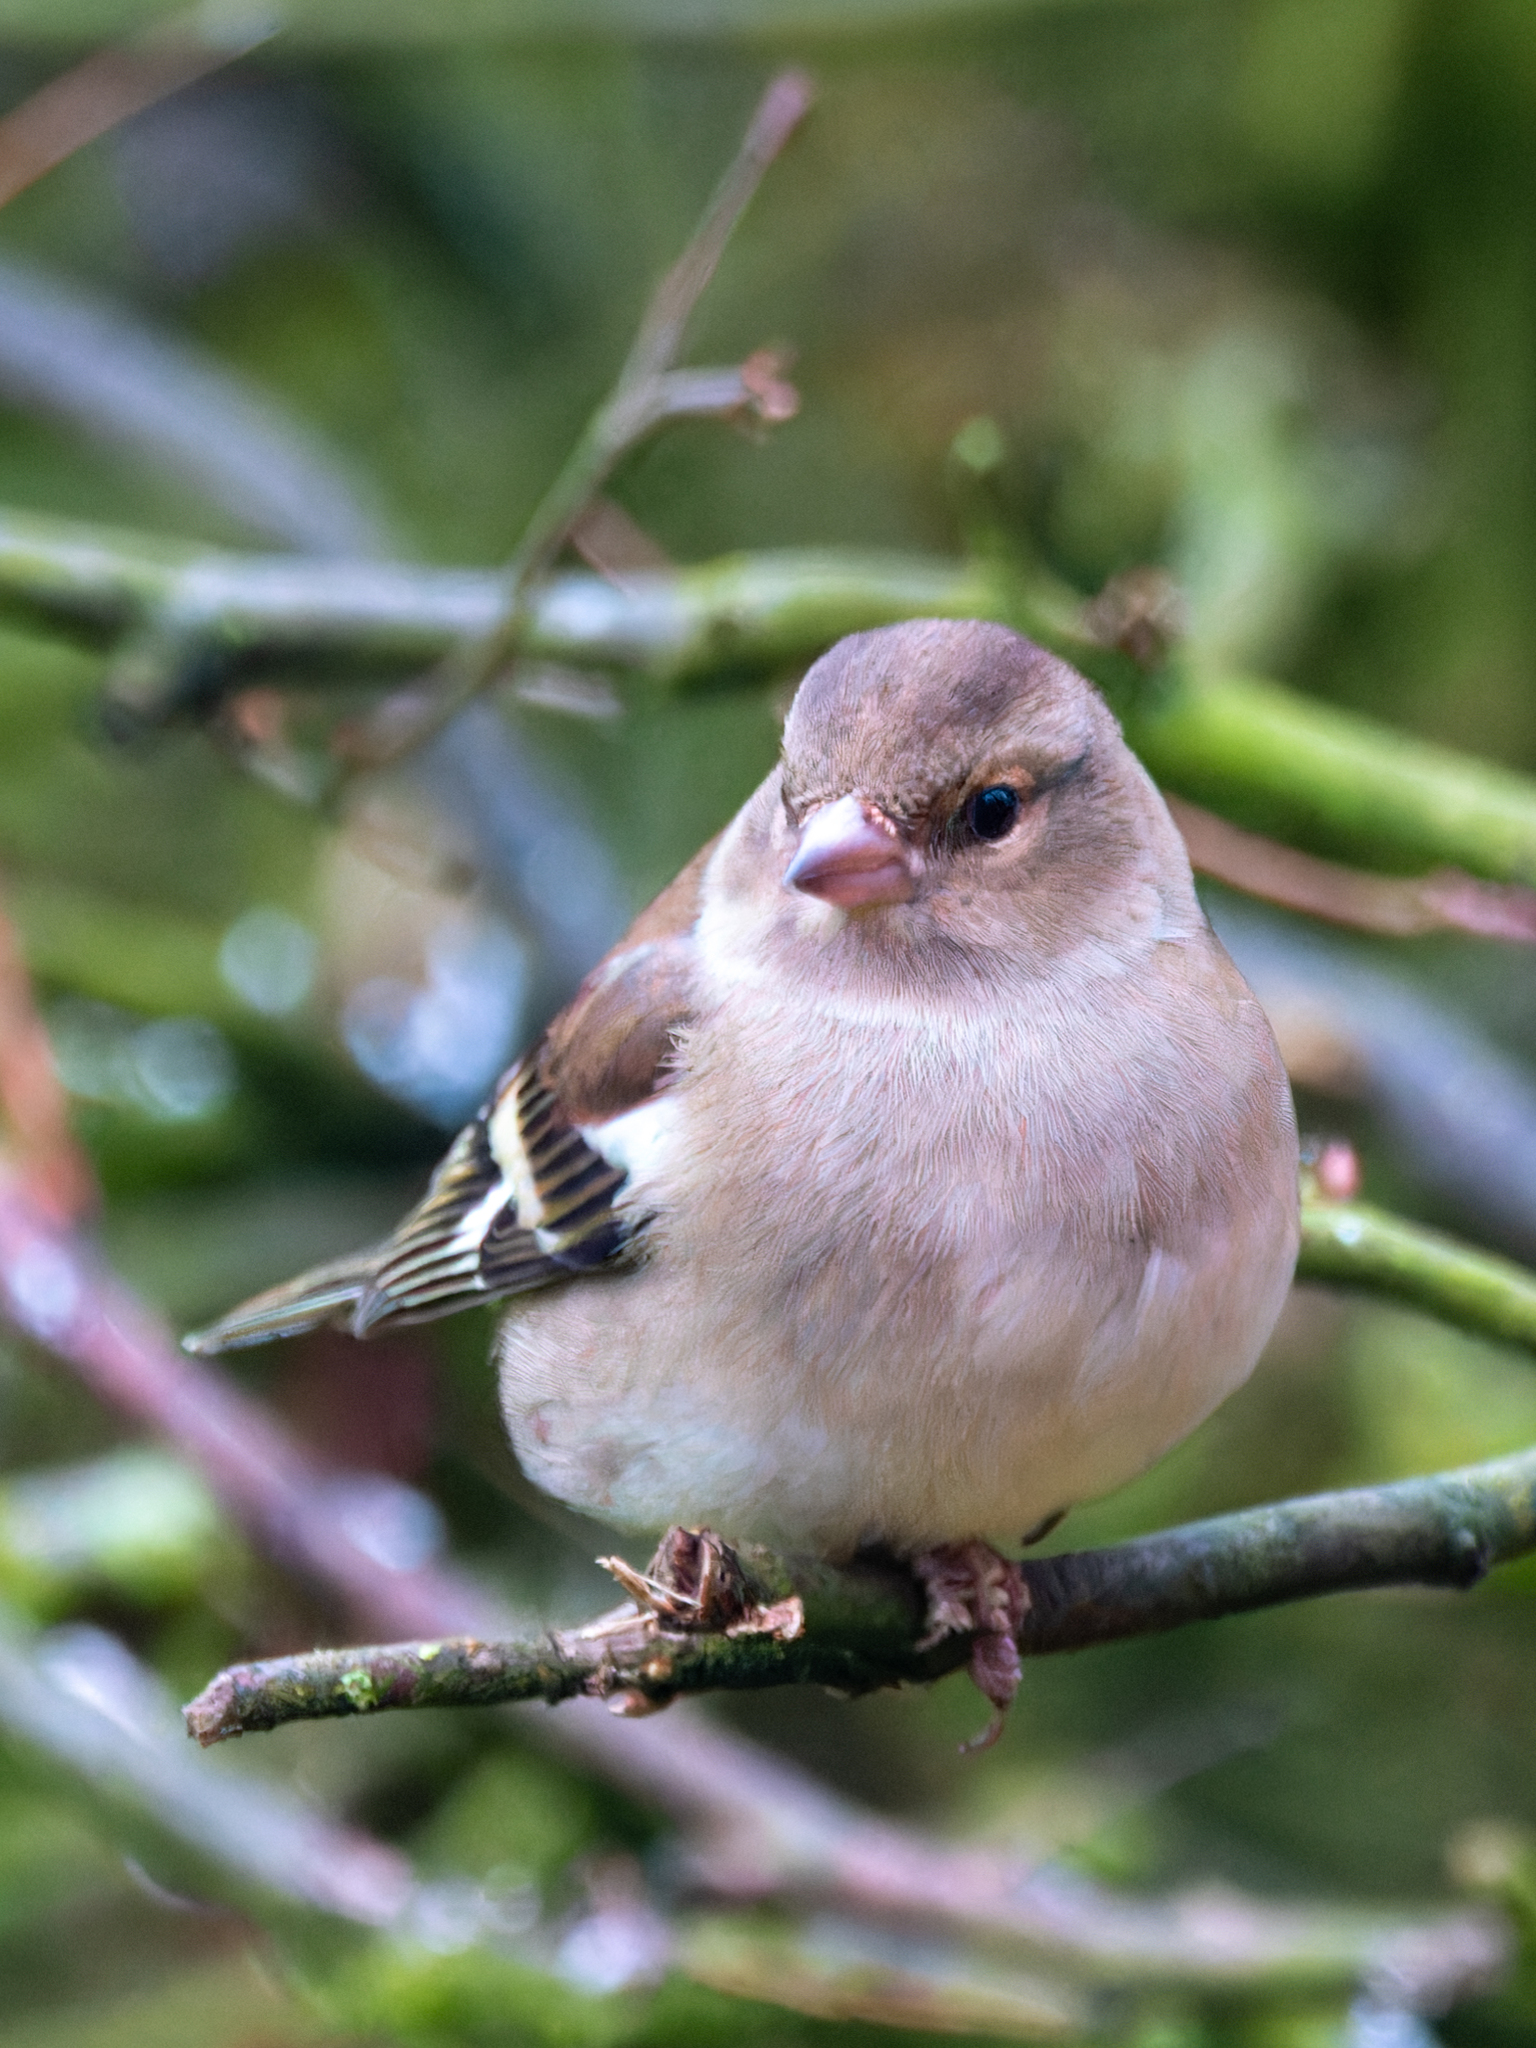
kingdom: Animalia
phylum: Chordata
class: Aves
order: Passeriformes
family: Fringillidae
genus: Fringilla
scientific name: Fringilla coelebs
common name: Common chaffinch
